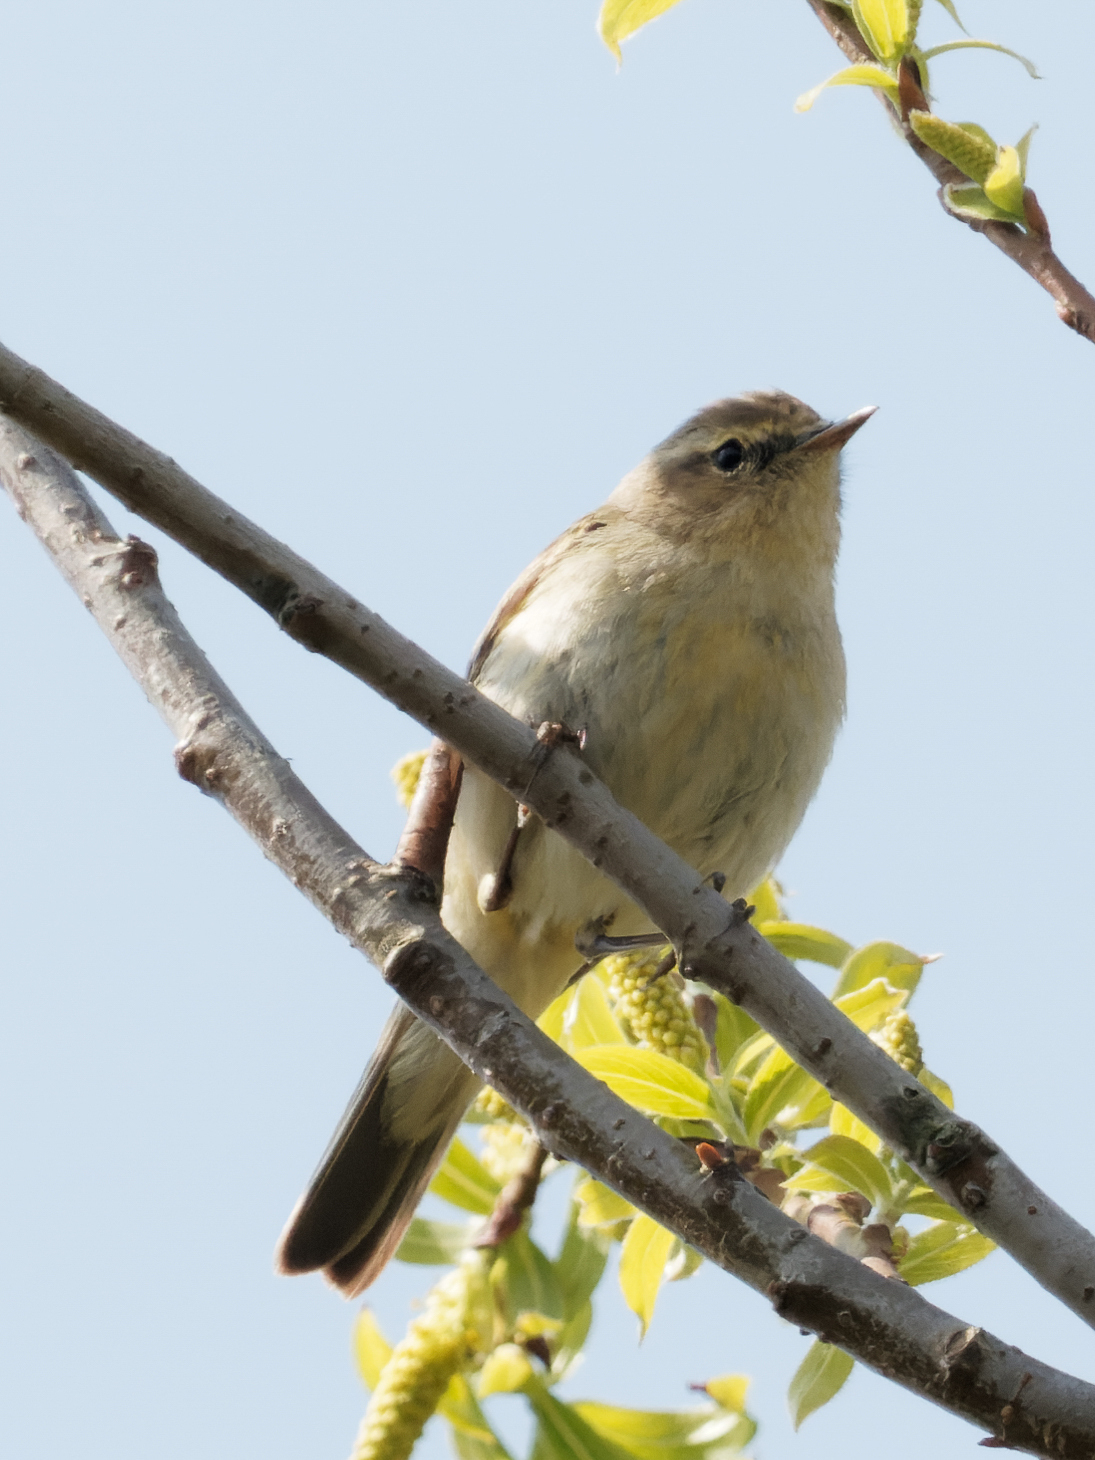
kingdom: Animalia
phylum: Chordata
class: Aves
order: Passeriformes
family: Phylloscopidae
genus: Phylloscopus
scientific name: Phylloscopus collybita
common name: Common chiffchaff
